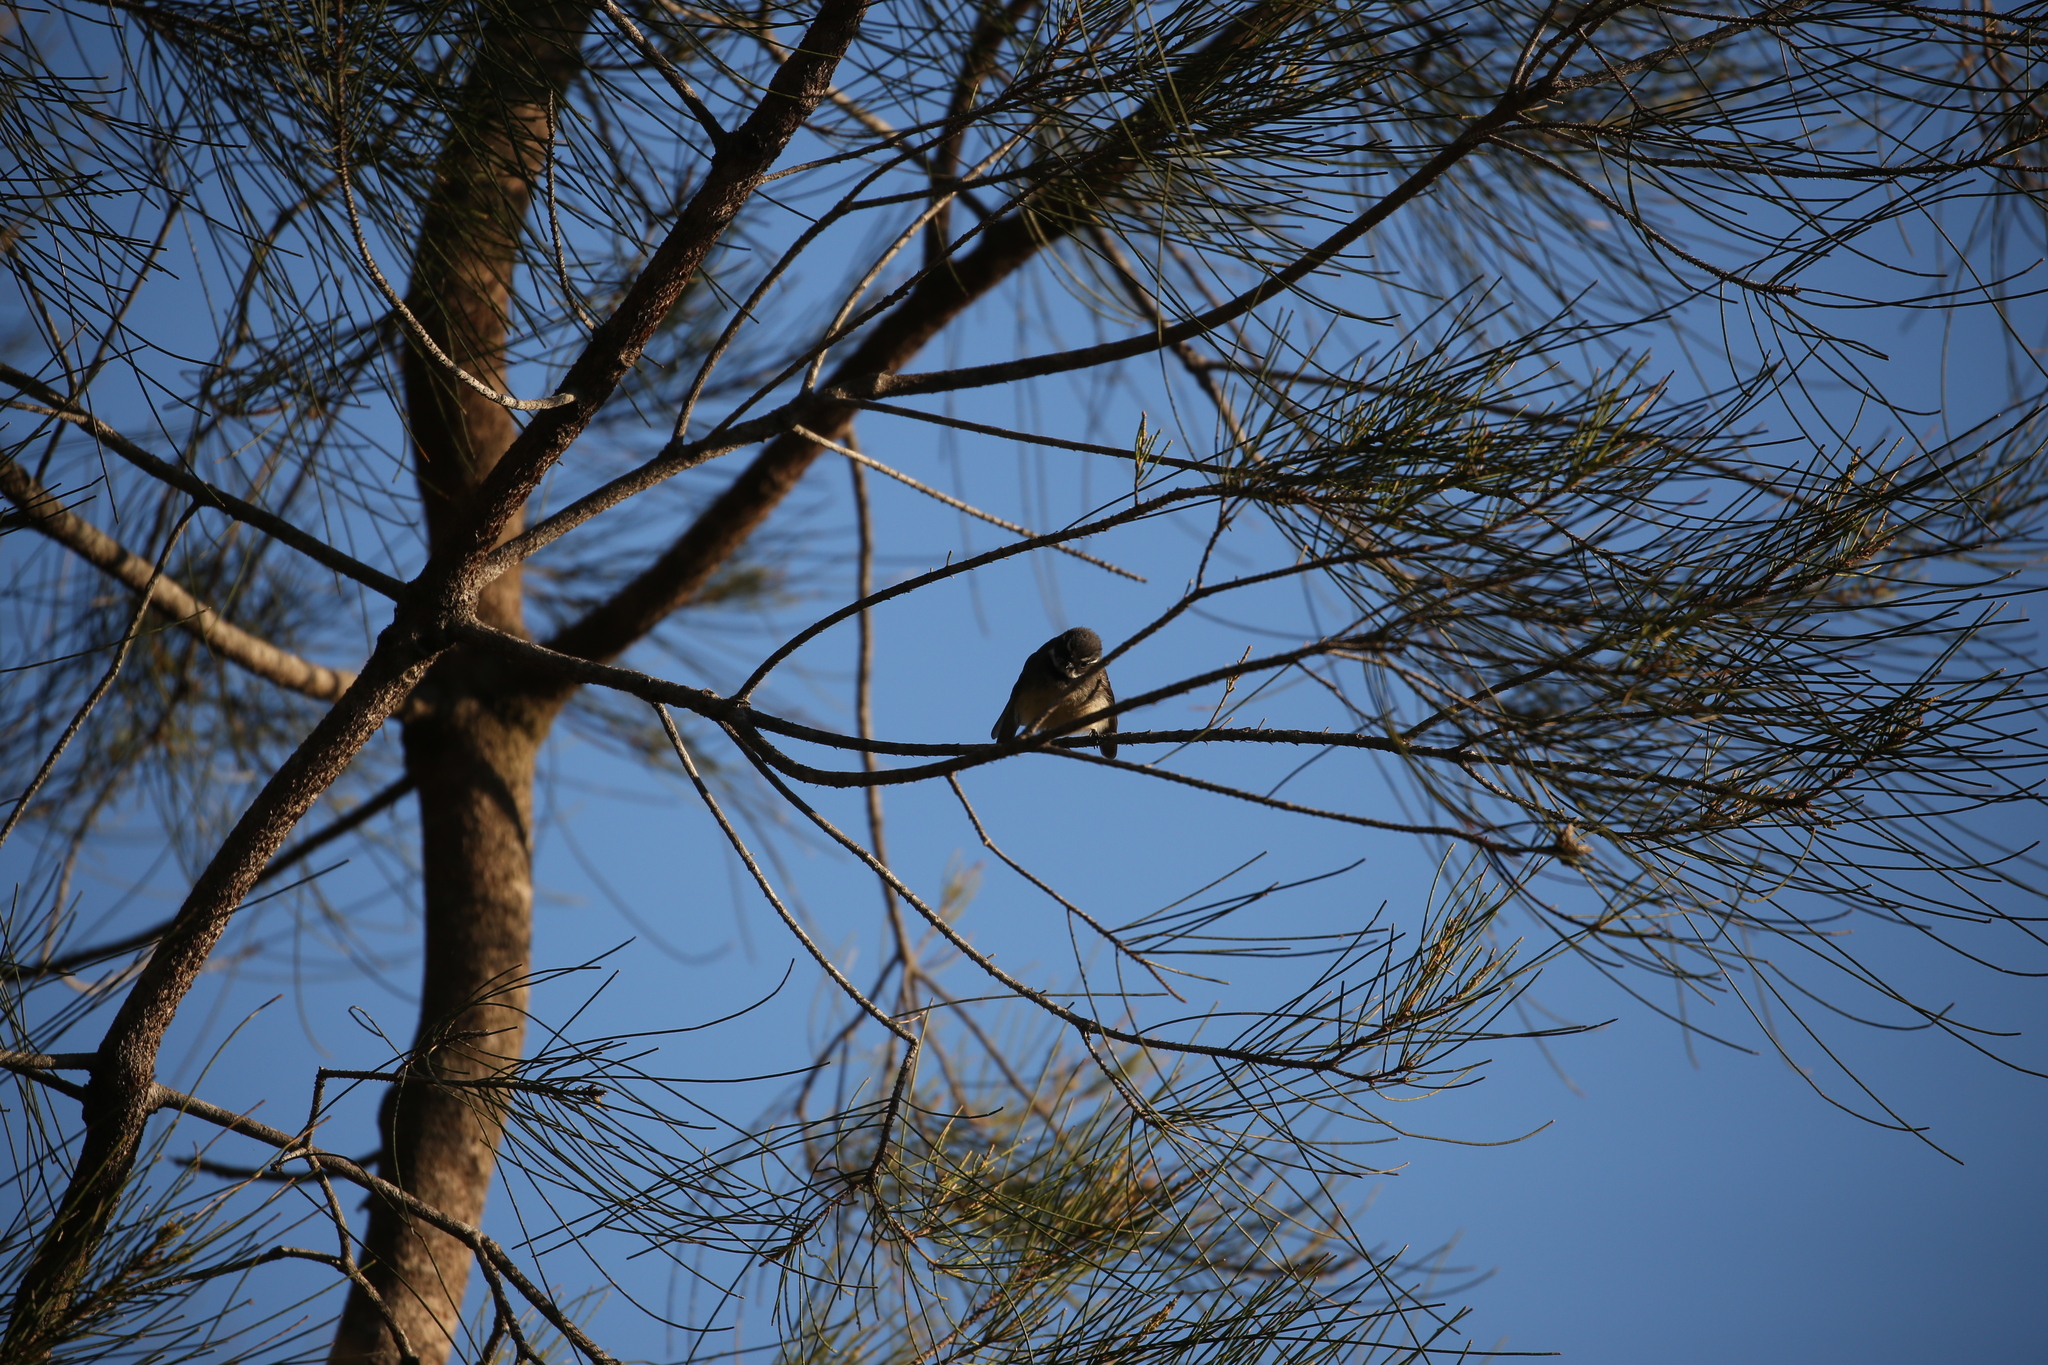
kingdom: Animalia
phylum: Chordata
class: Aves
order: Passeriformes
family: Rhipiduridae
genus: Rhipidura
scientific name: Rhipidura albiscapa
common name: Grey fantail
